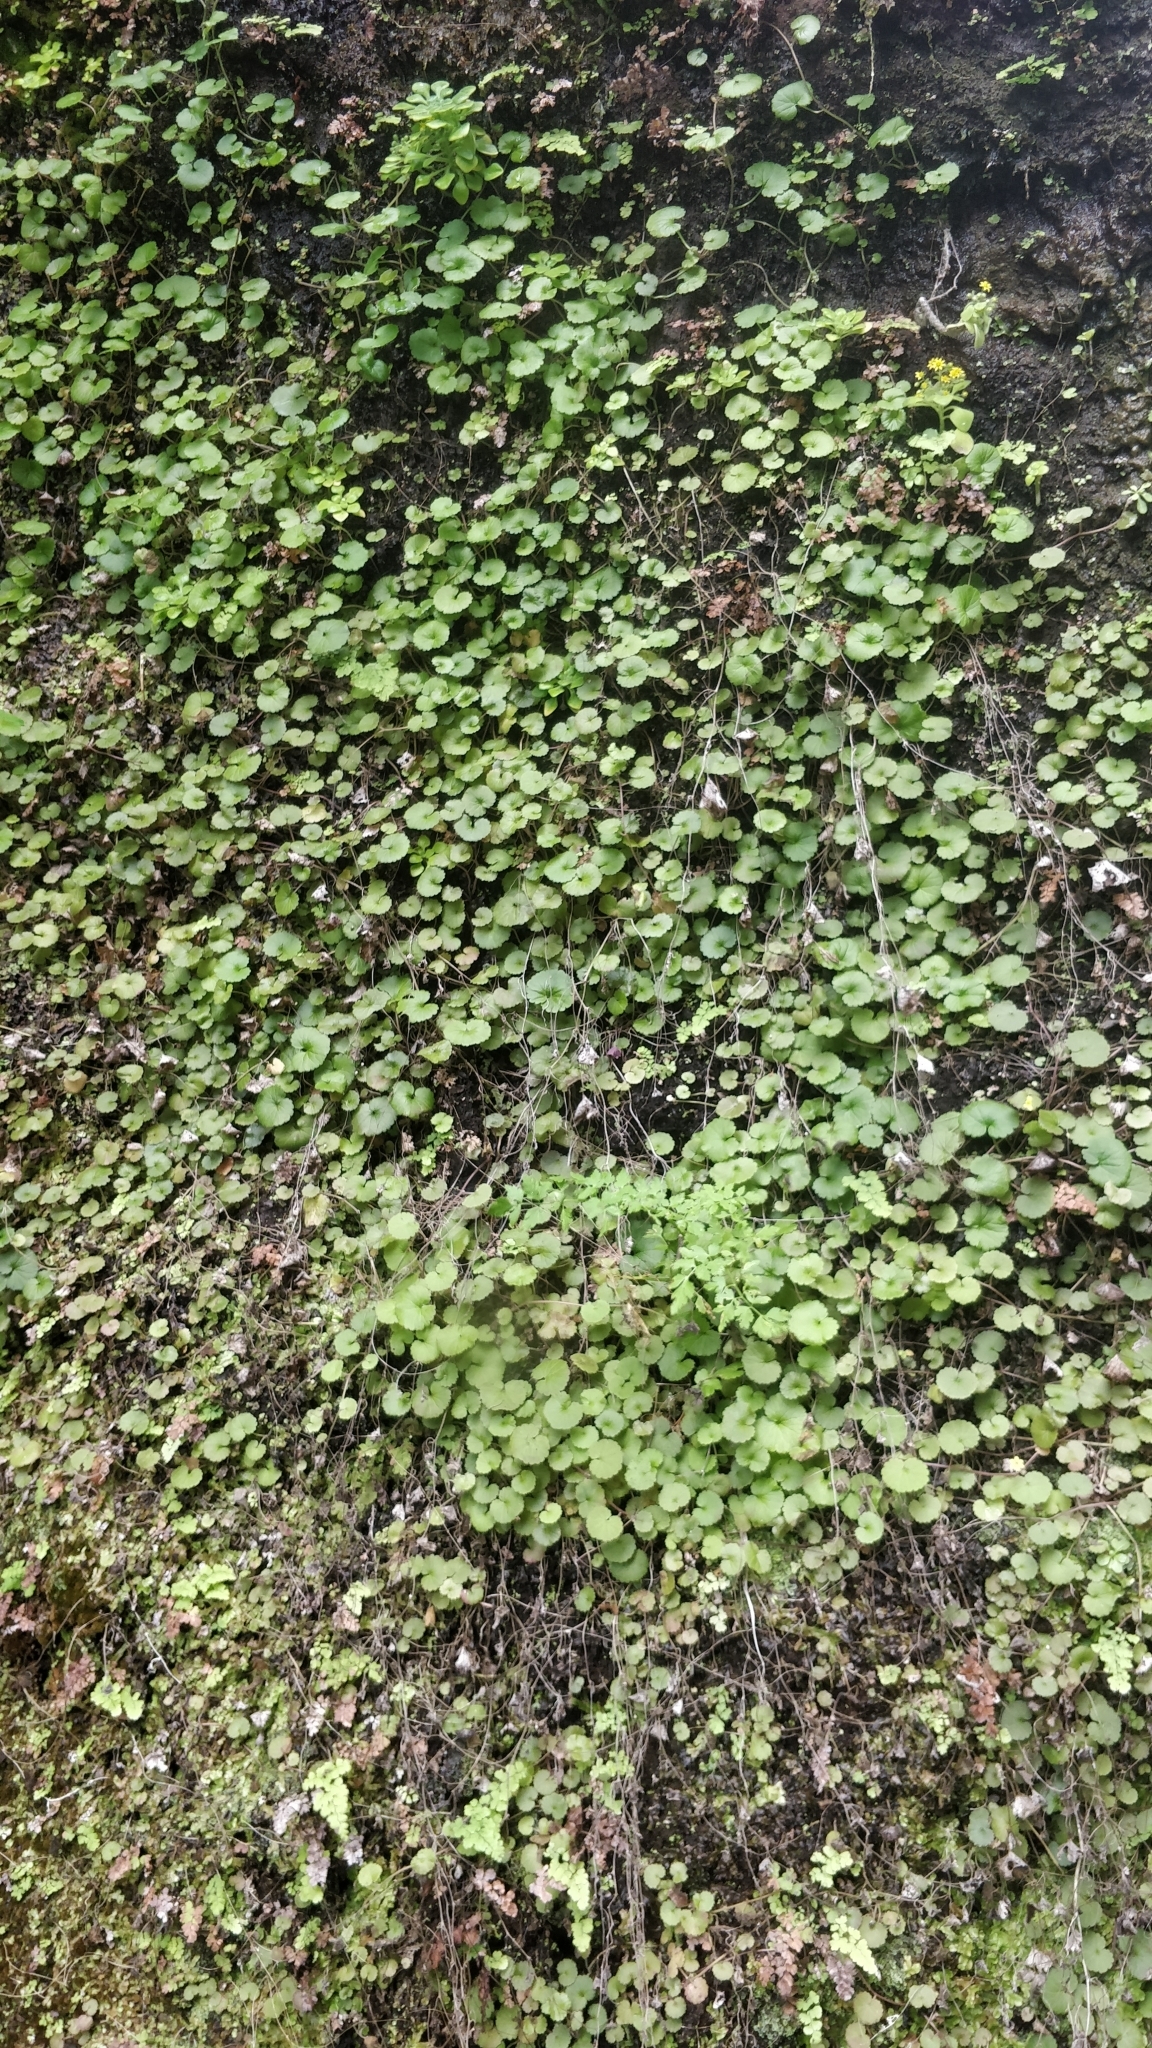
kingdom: Plantae
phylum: Tracheophyta
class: Magnoliopsida
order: Lamiales
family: Plantaginaceae
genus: Sibthorpia
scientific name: Sibthorpia peregrina
